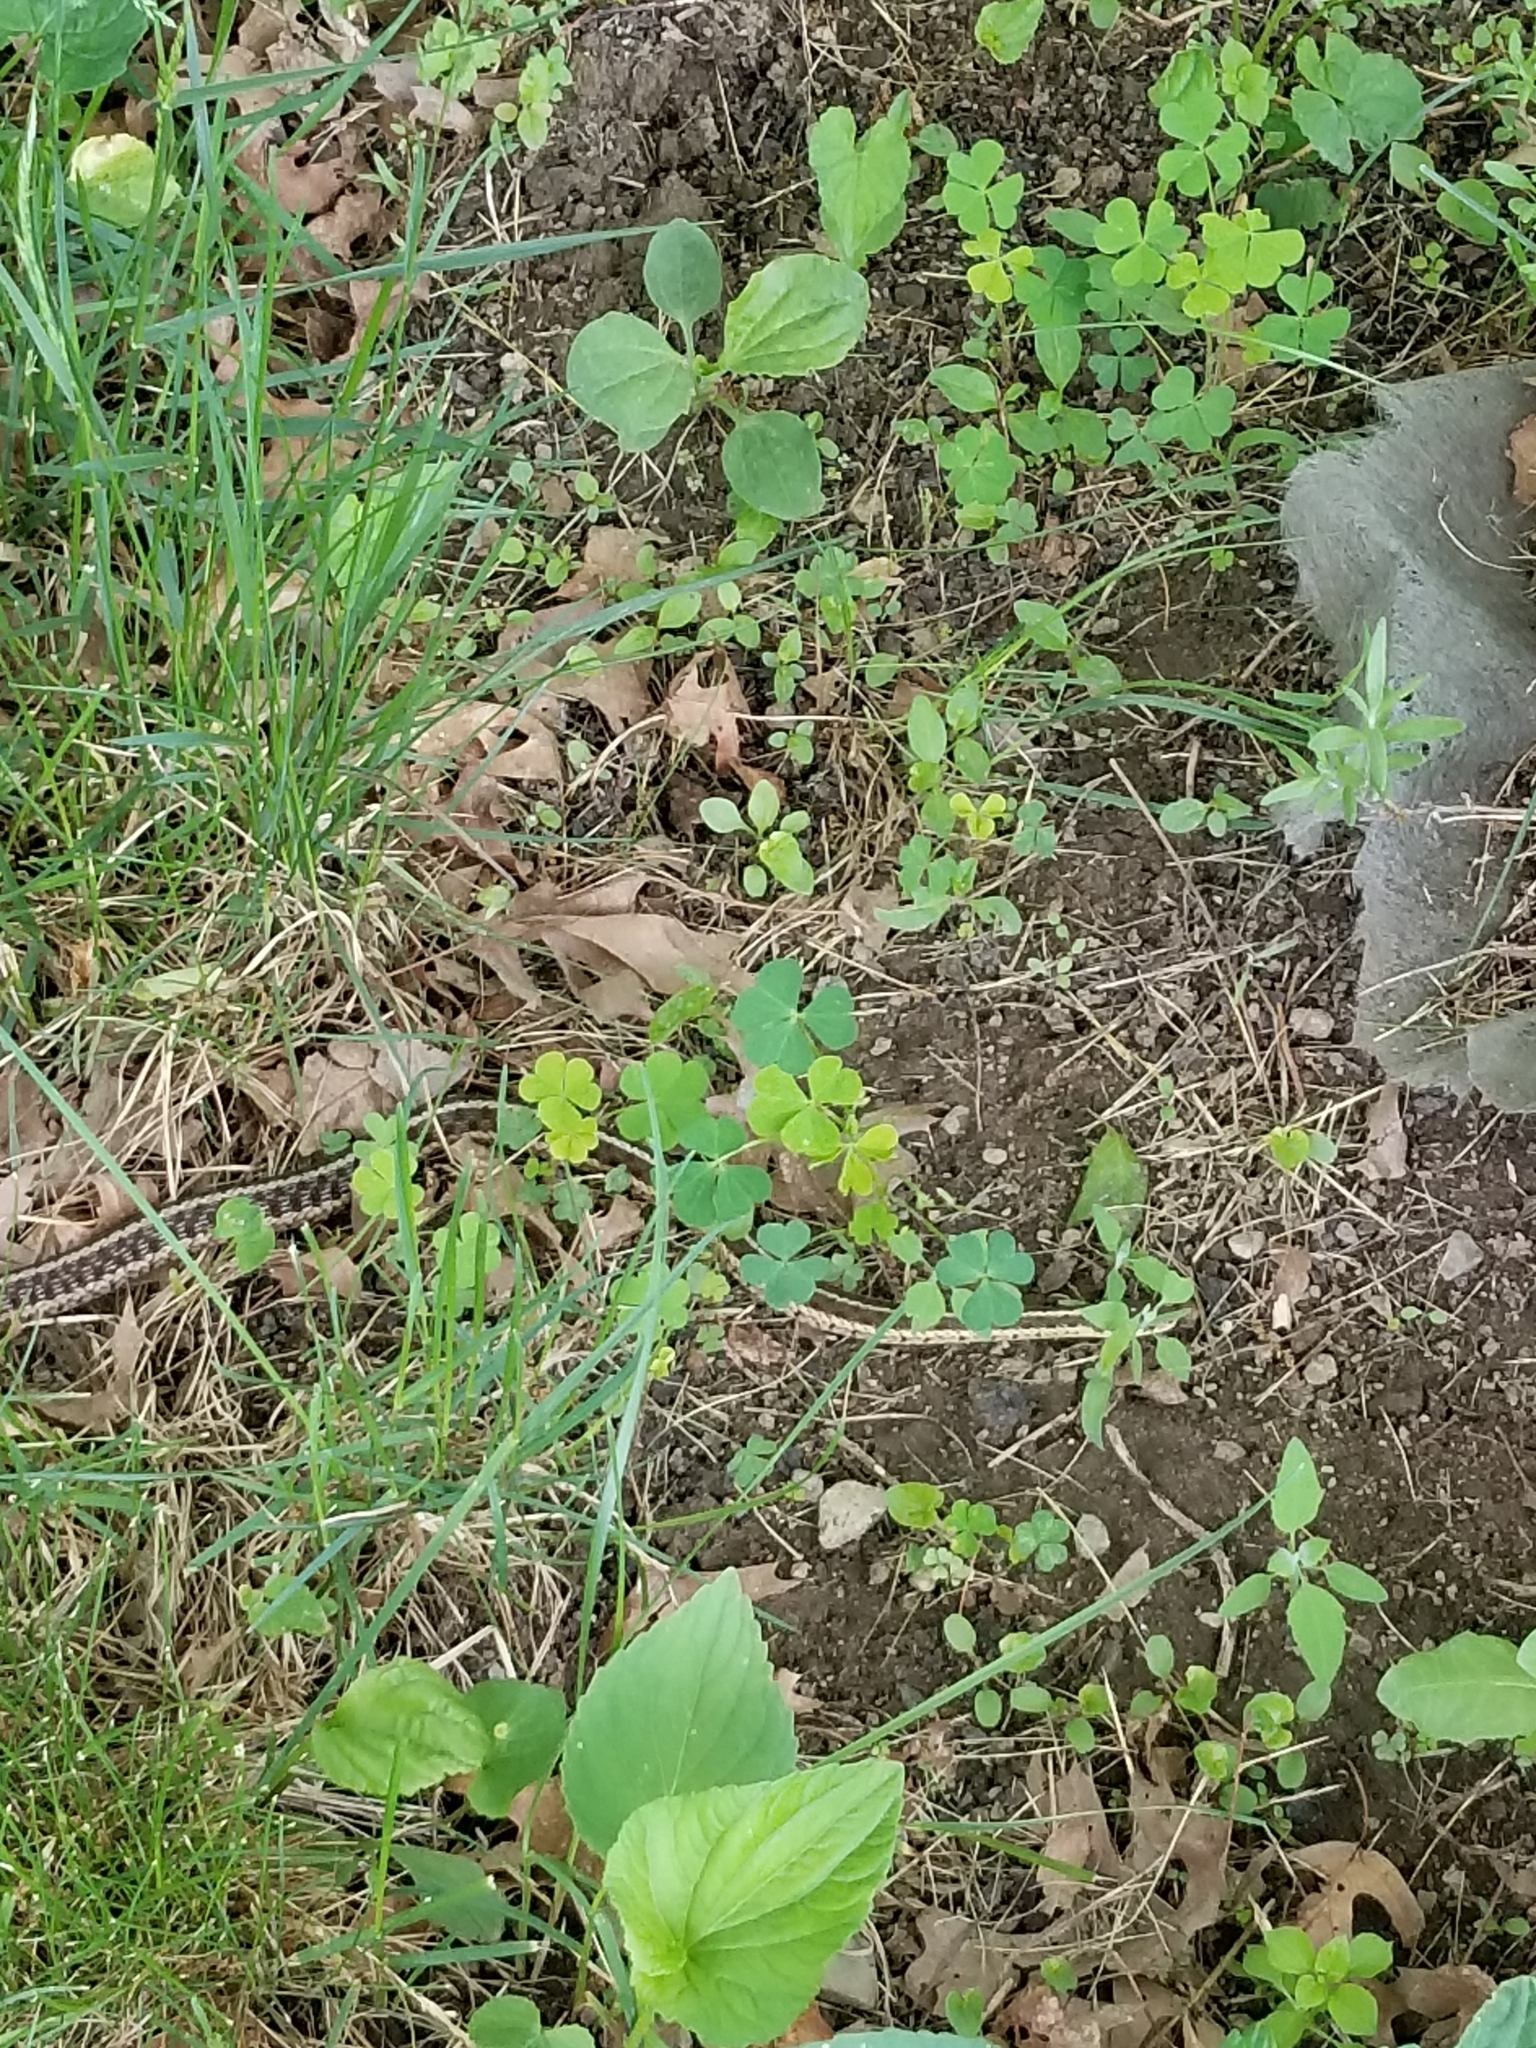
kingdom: Animalia
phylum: Chordata
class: Squamata
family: Colubridae
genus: Thamnophis
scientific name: Thamnophis sirtalis
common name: Common garter snake
